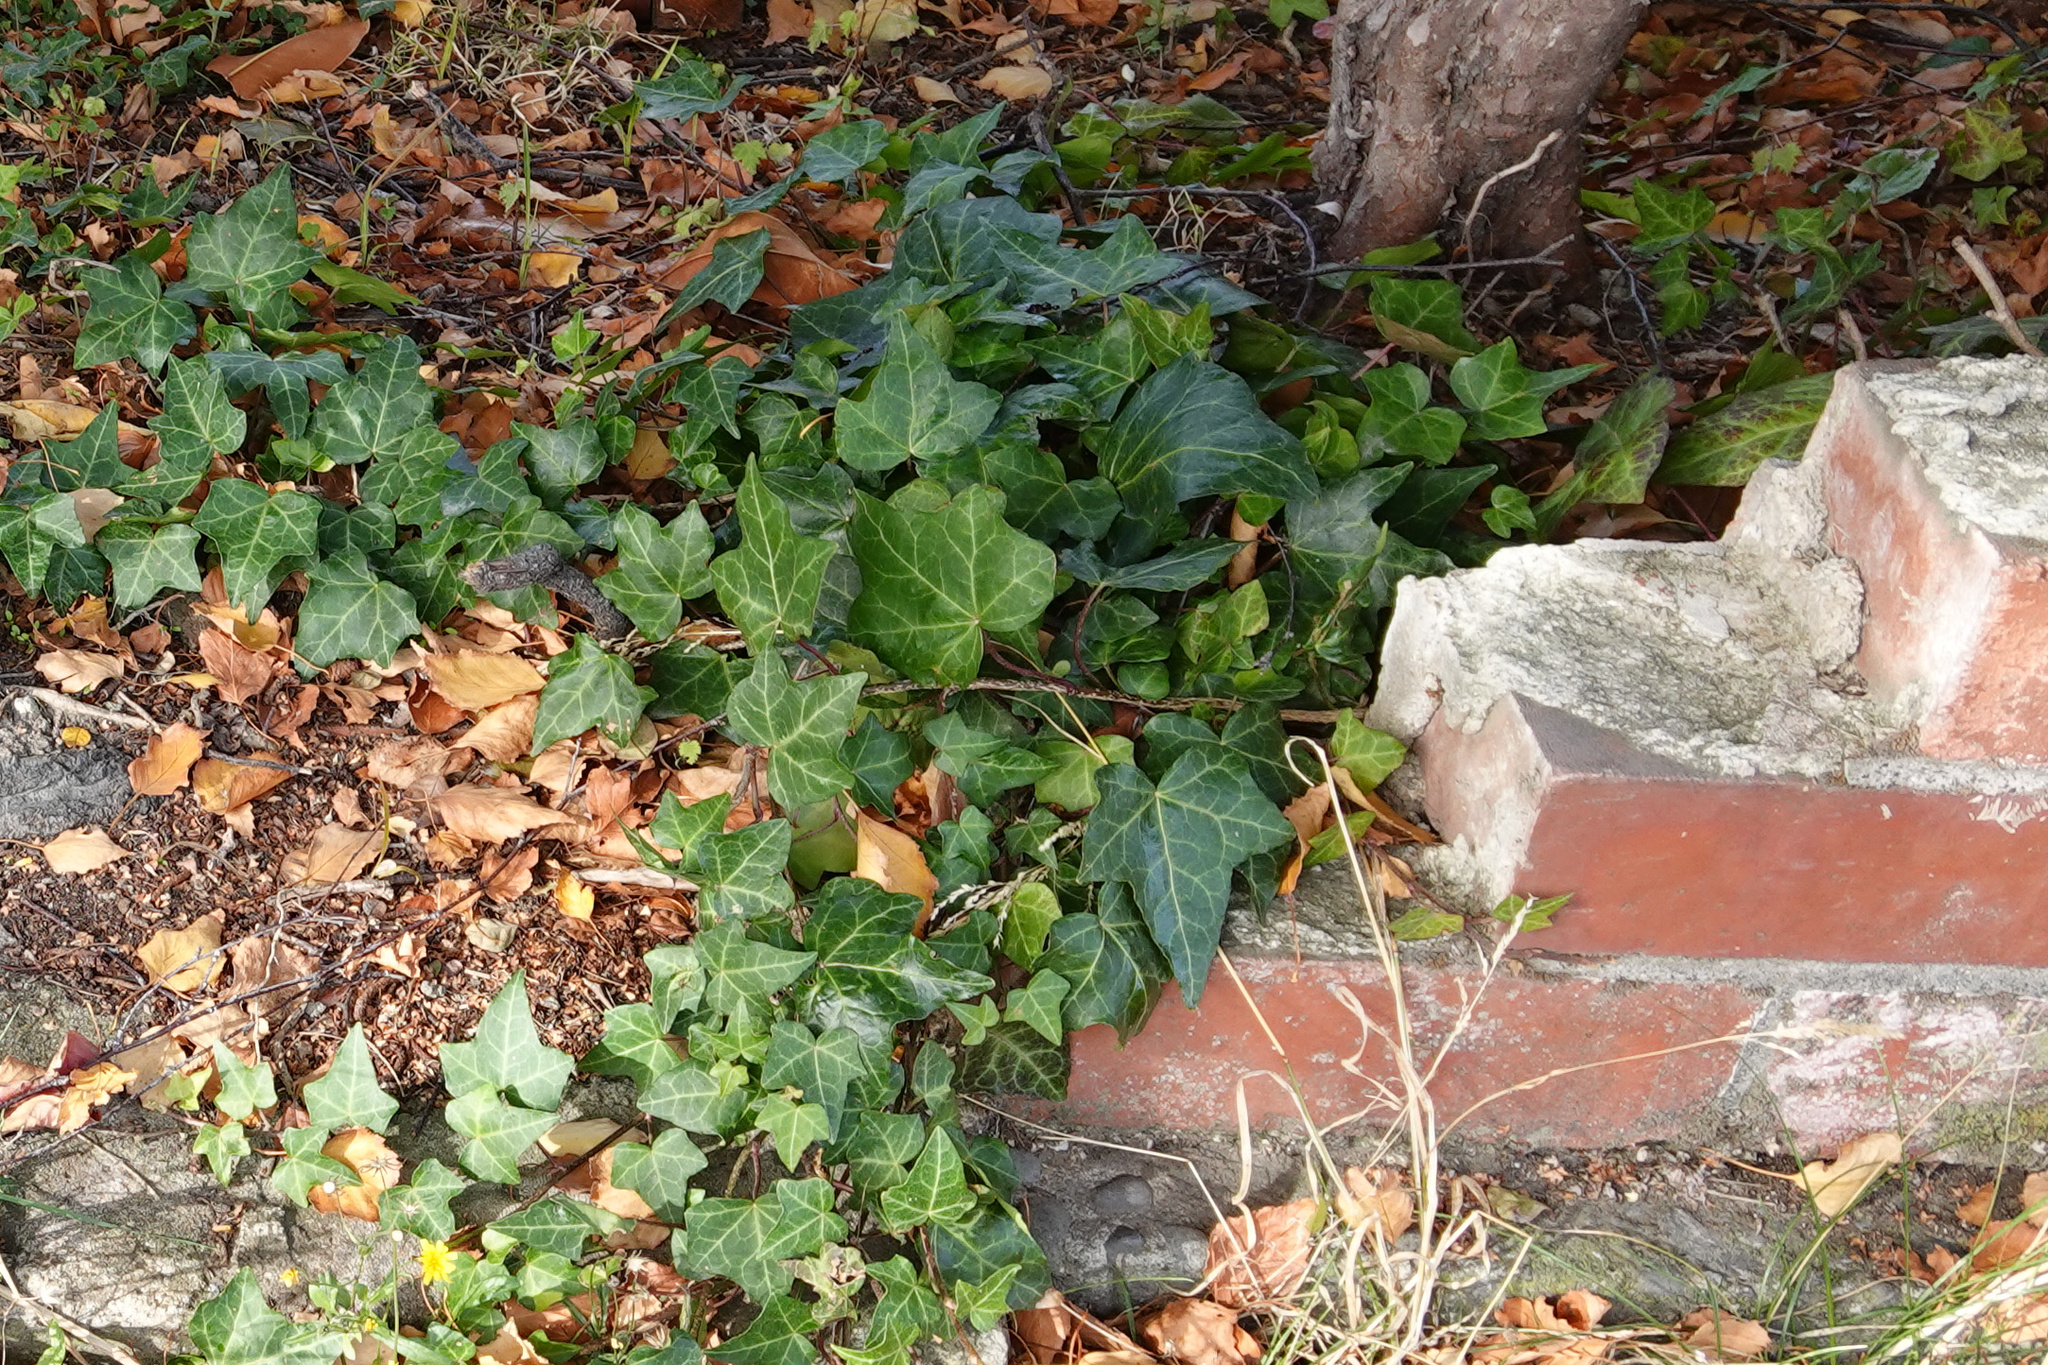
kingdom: Plantae
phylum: Tracheophyta
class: Magnoliopsida
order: Apiales
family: Araliaceae
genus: Hedera
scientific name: Hedera helix
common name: Ivy
